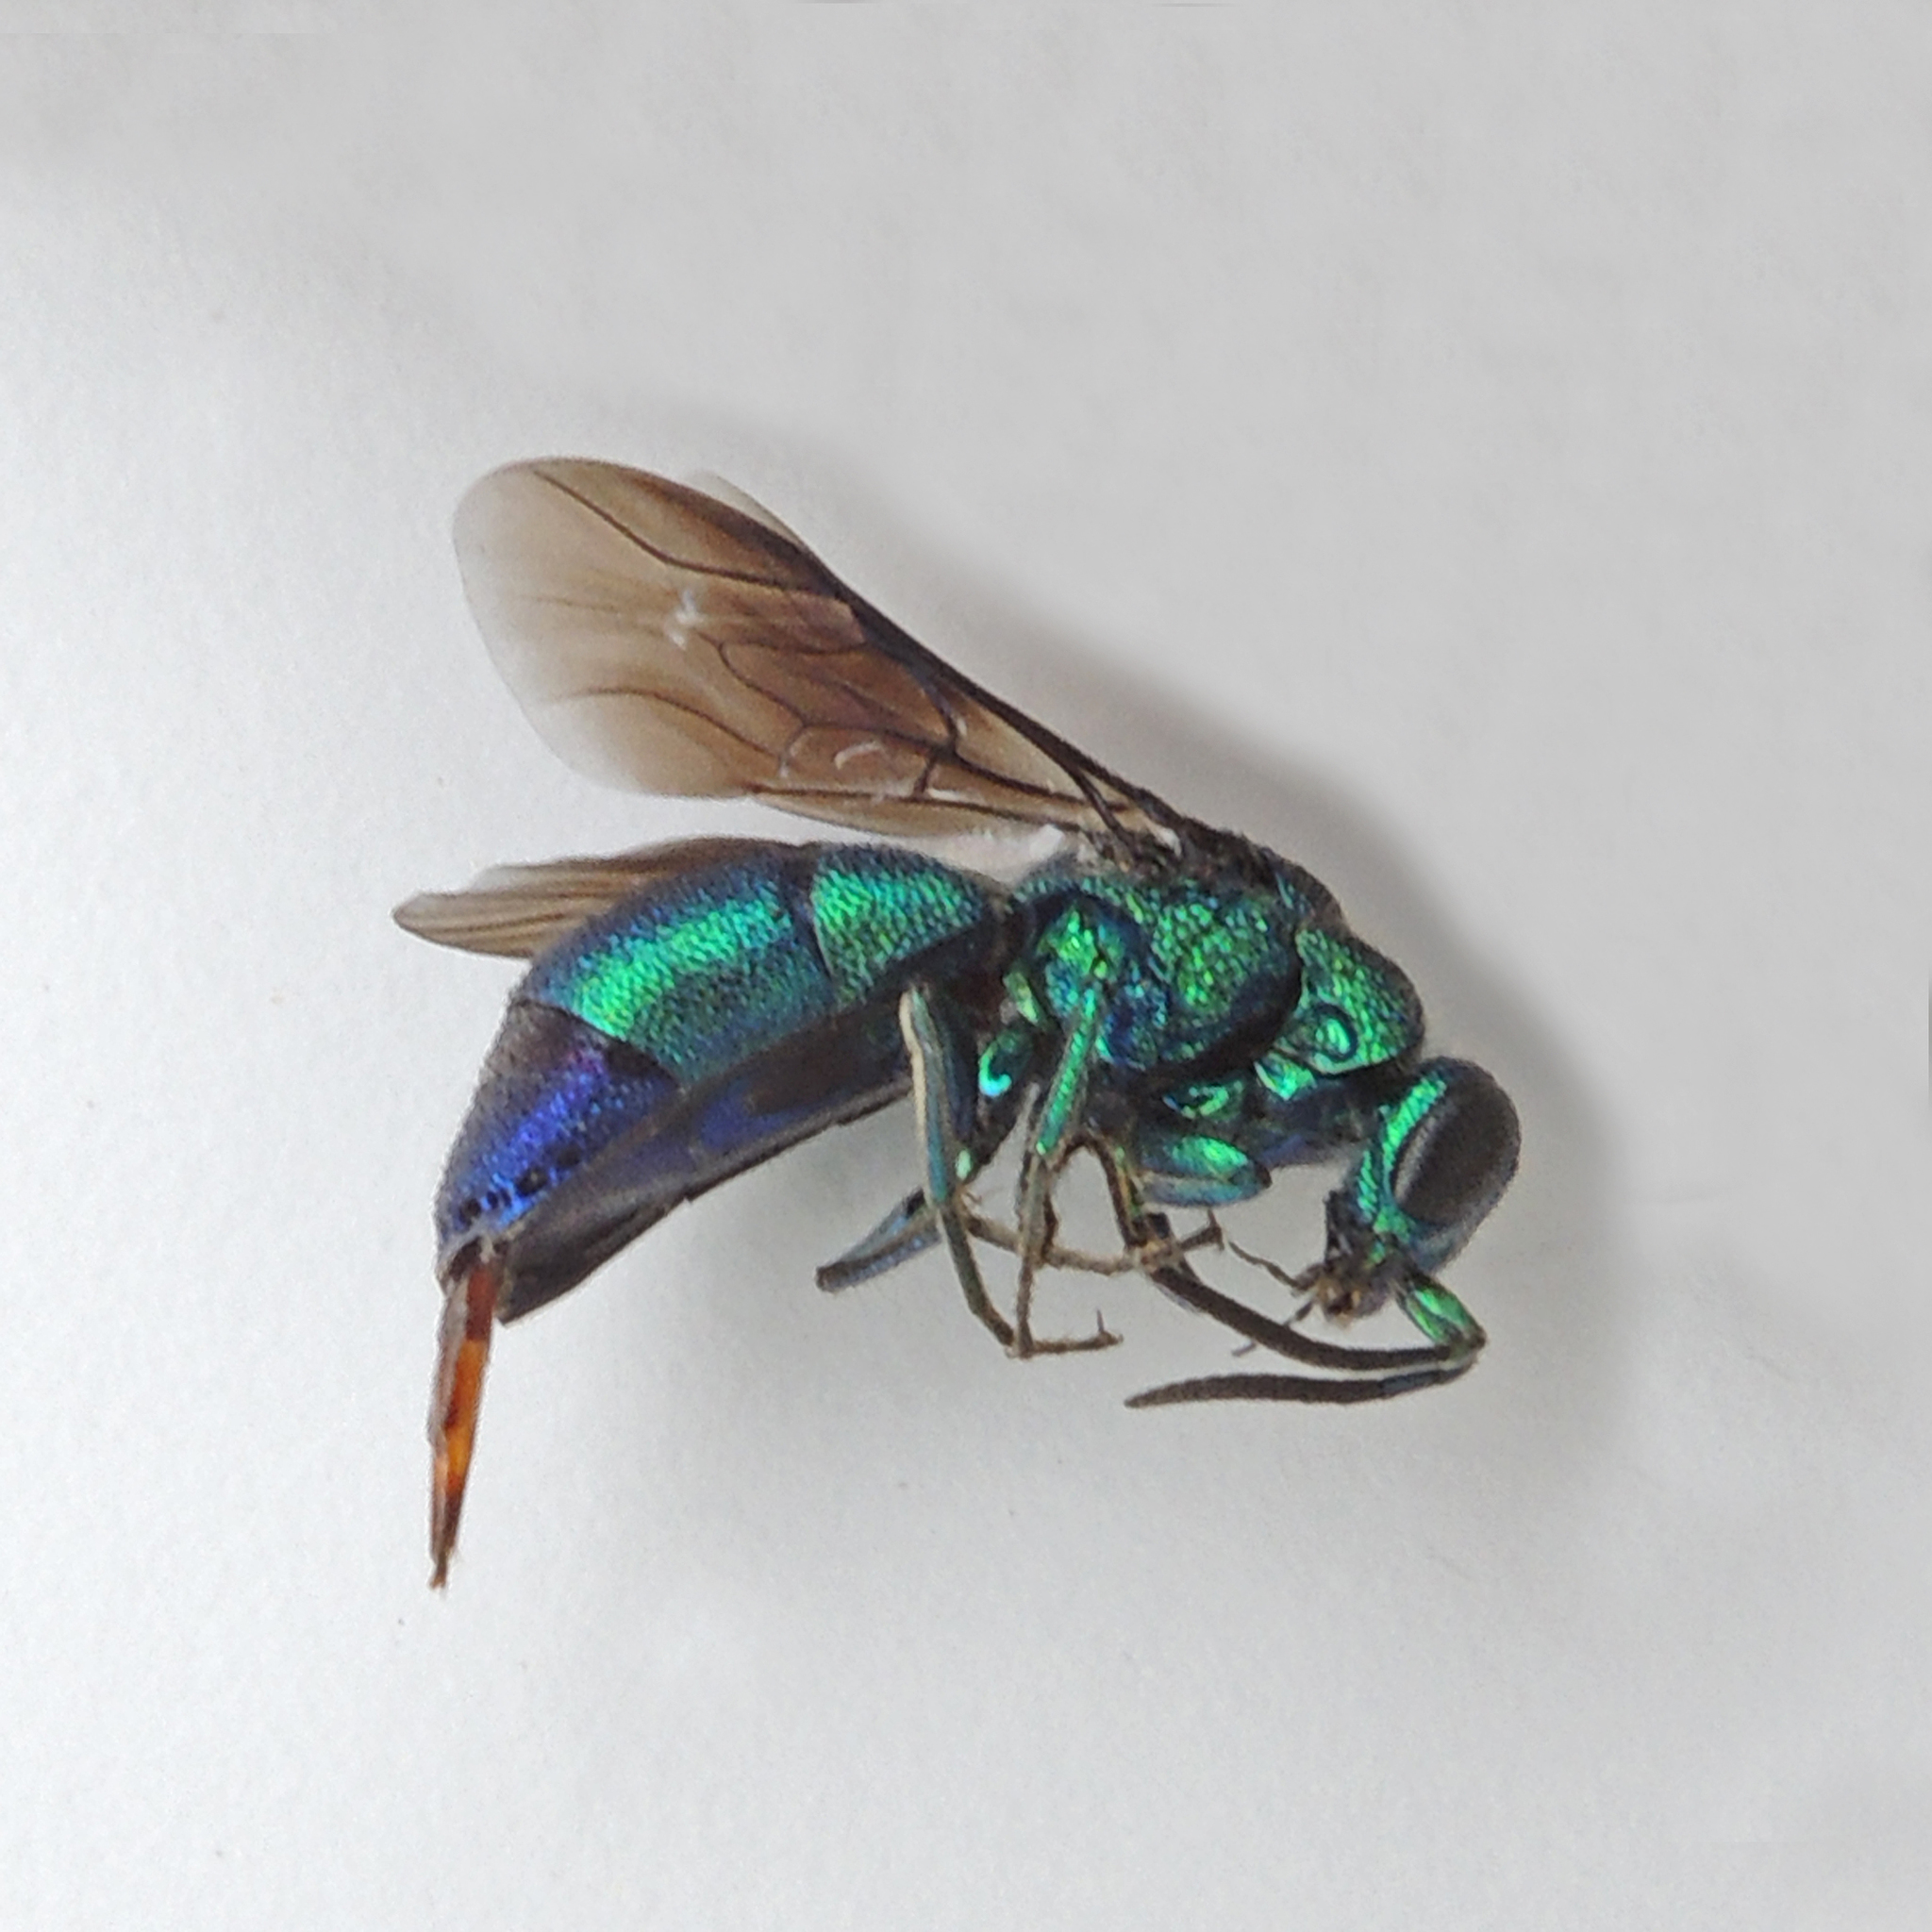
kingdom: Animalia
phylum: Arthropoda
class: Insecta
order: Hymenoptera
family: Chrysididae
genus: Chrysis
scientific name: Chrysis angolensis
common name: Cuckoo wasp
